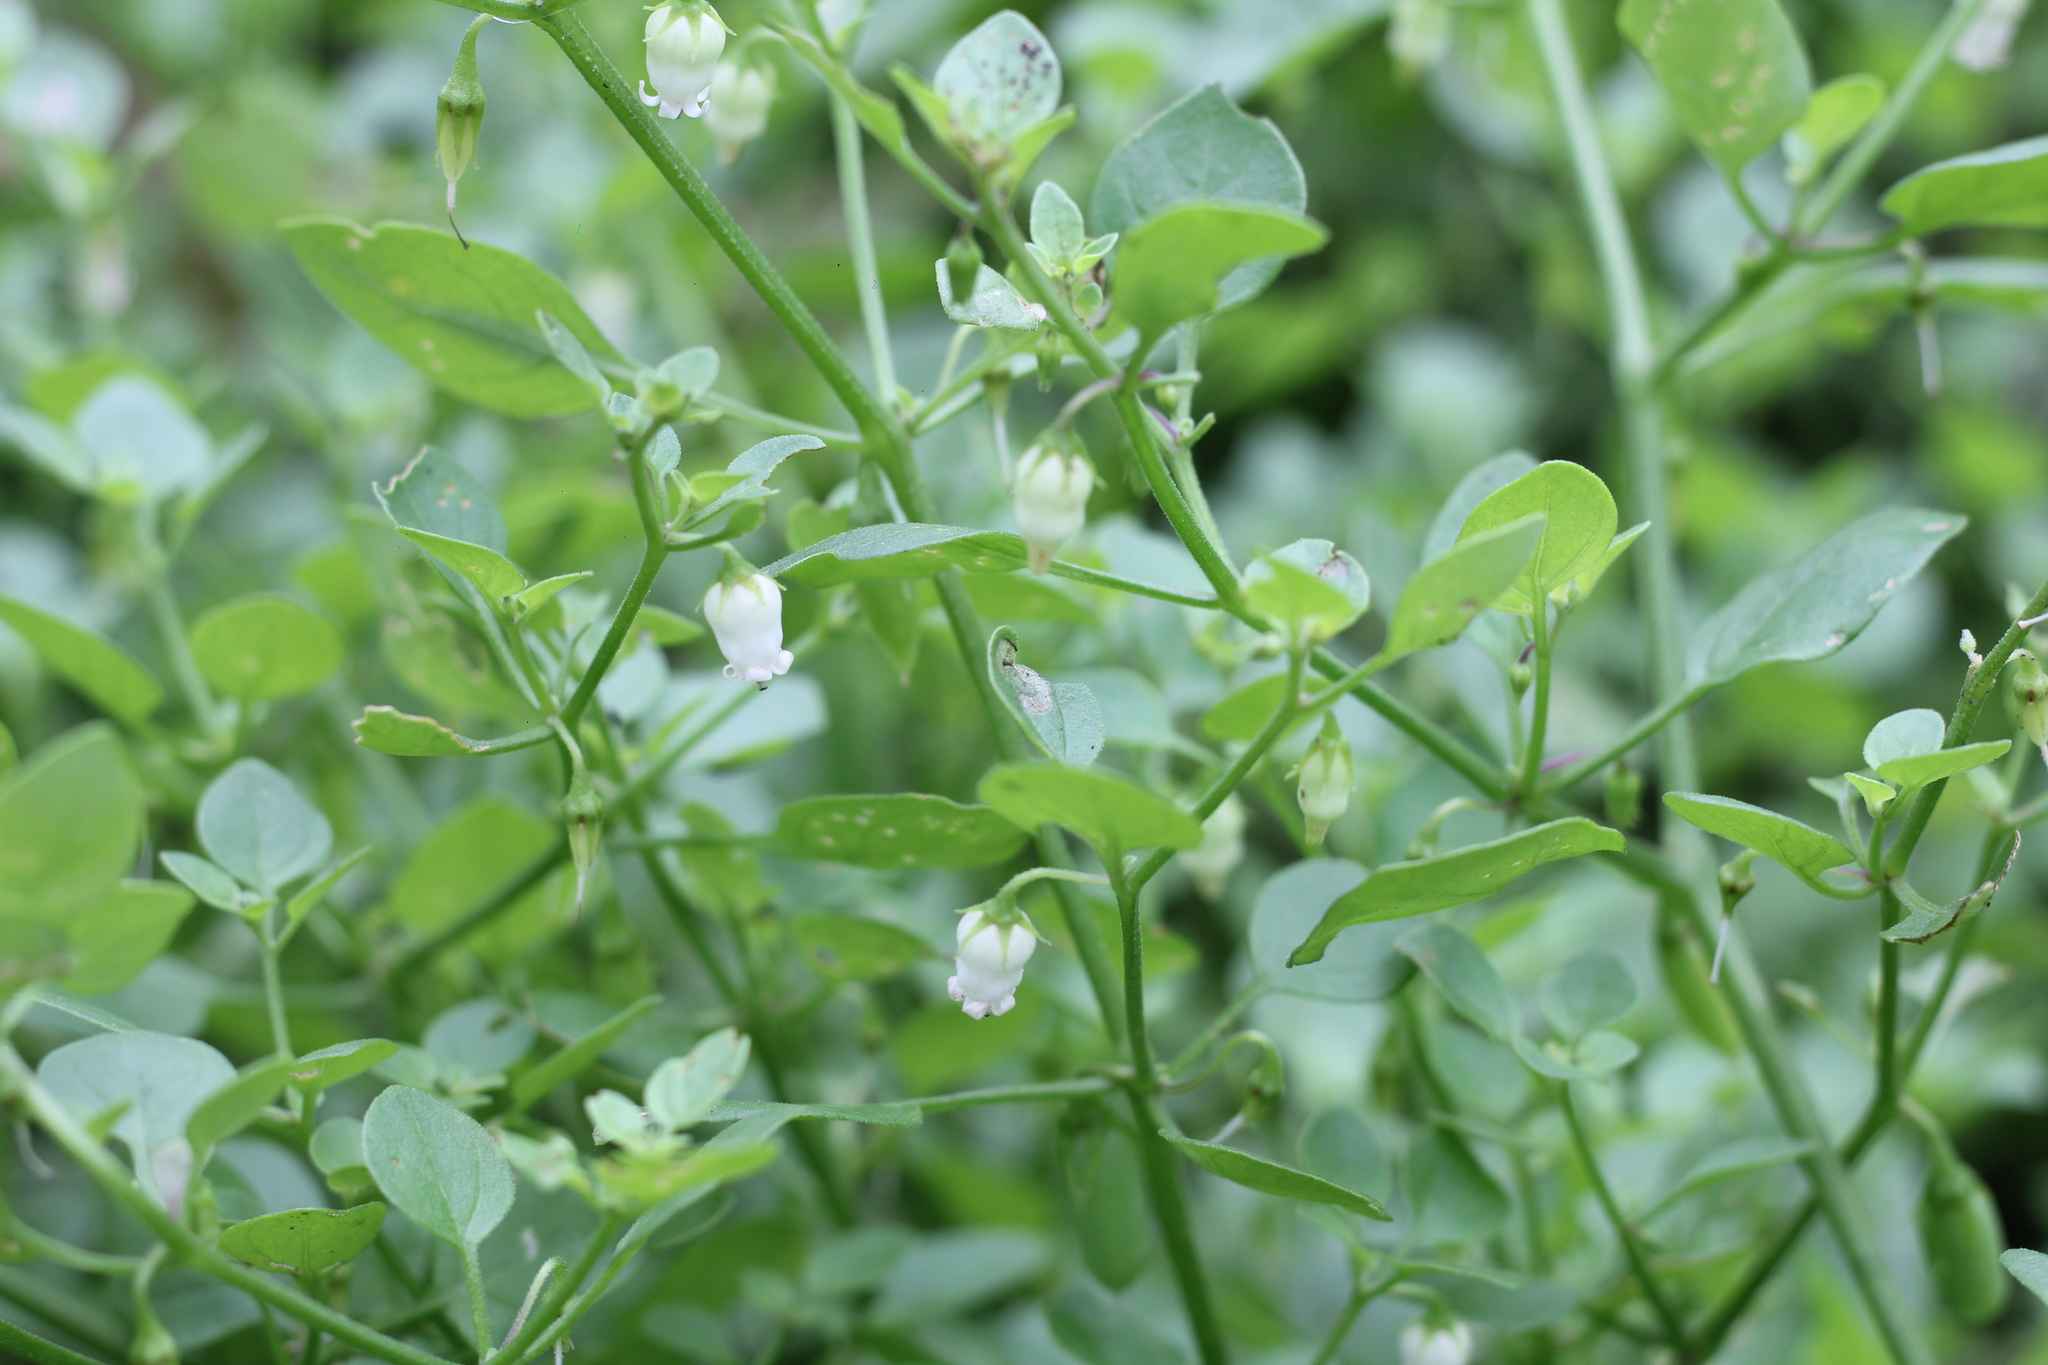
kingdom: Plantae
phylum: Tracheophyta
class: Magnoliopsida
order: Solanales
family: Solanaceae
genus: Salpichroa
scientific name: Salpichroa origanifolia
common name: Lily-of-the-valley-vine
